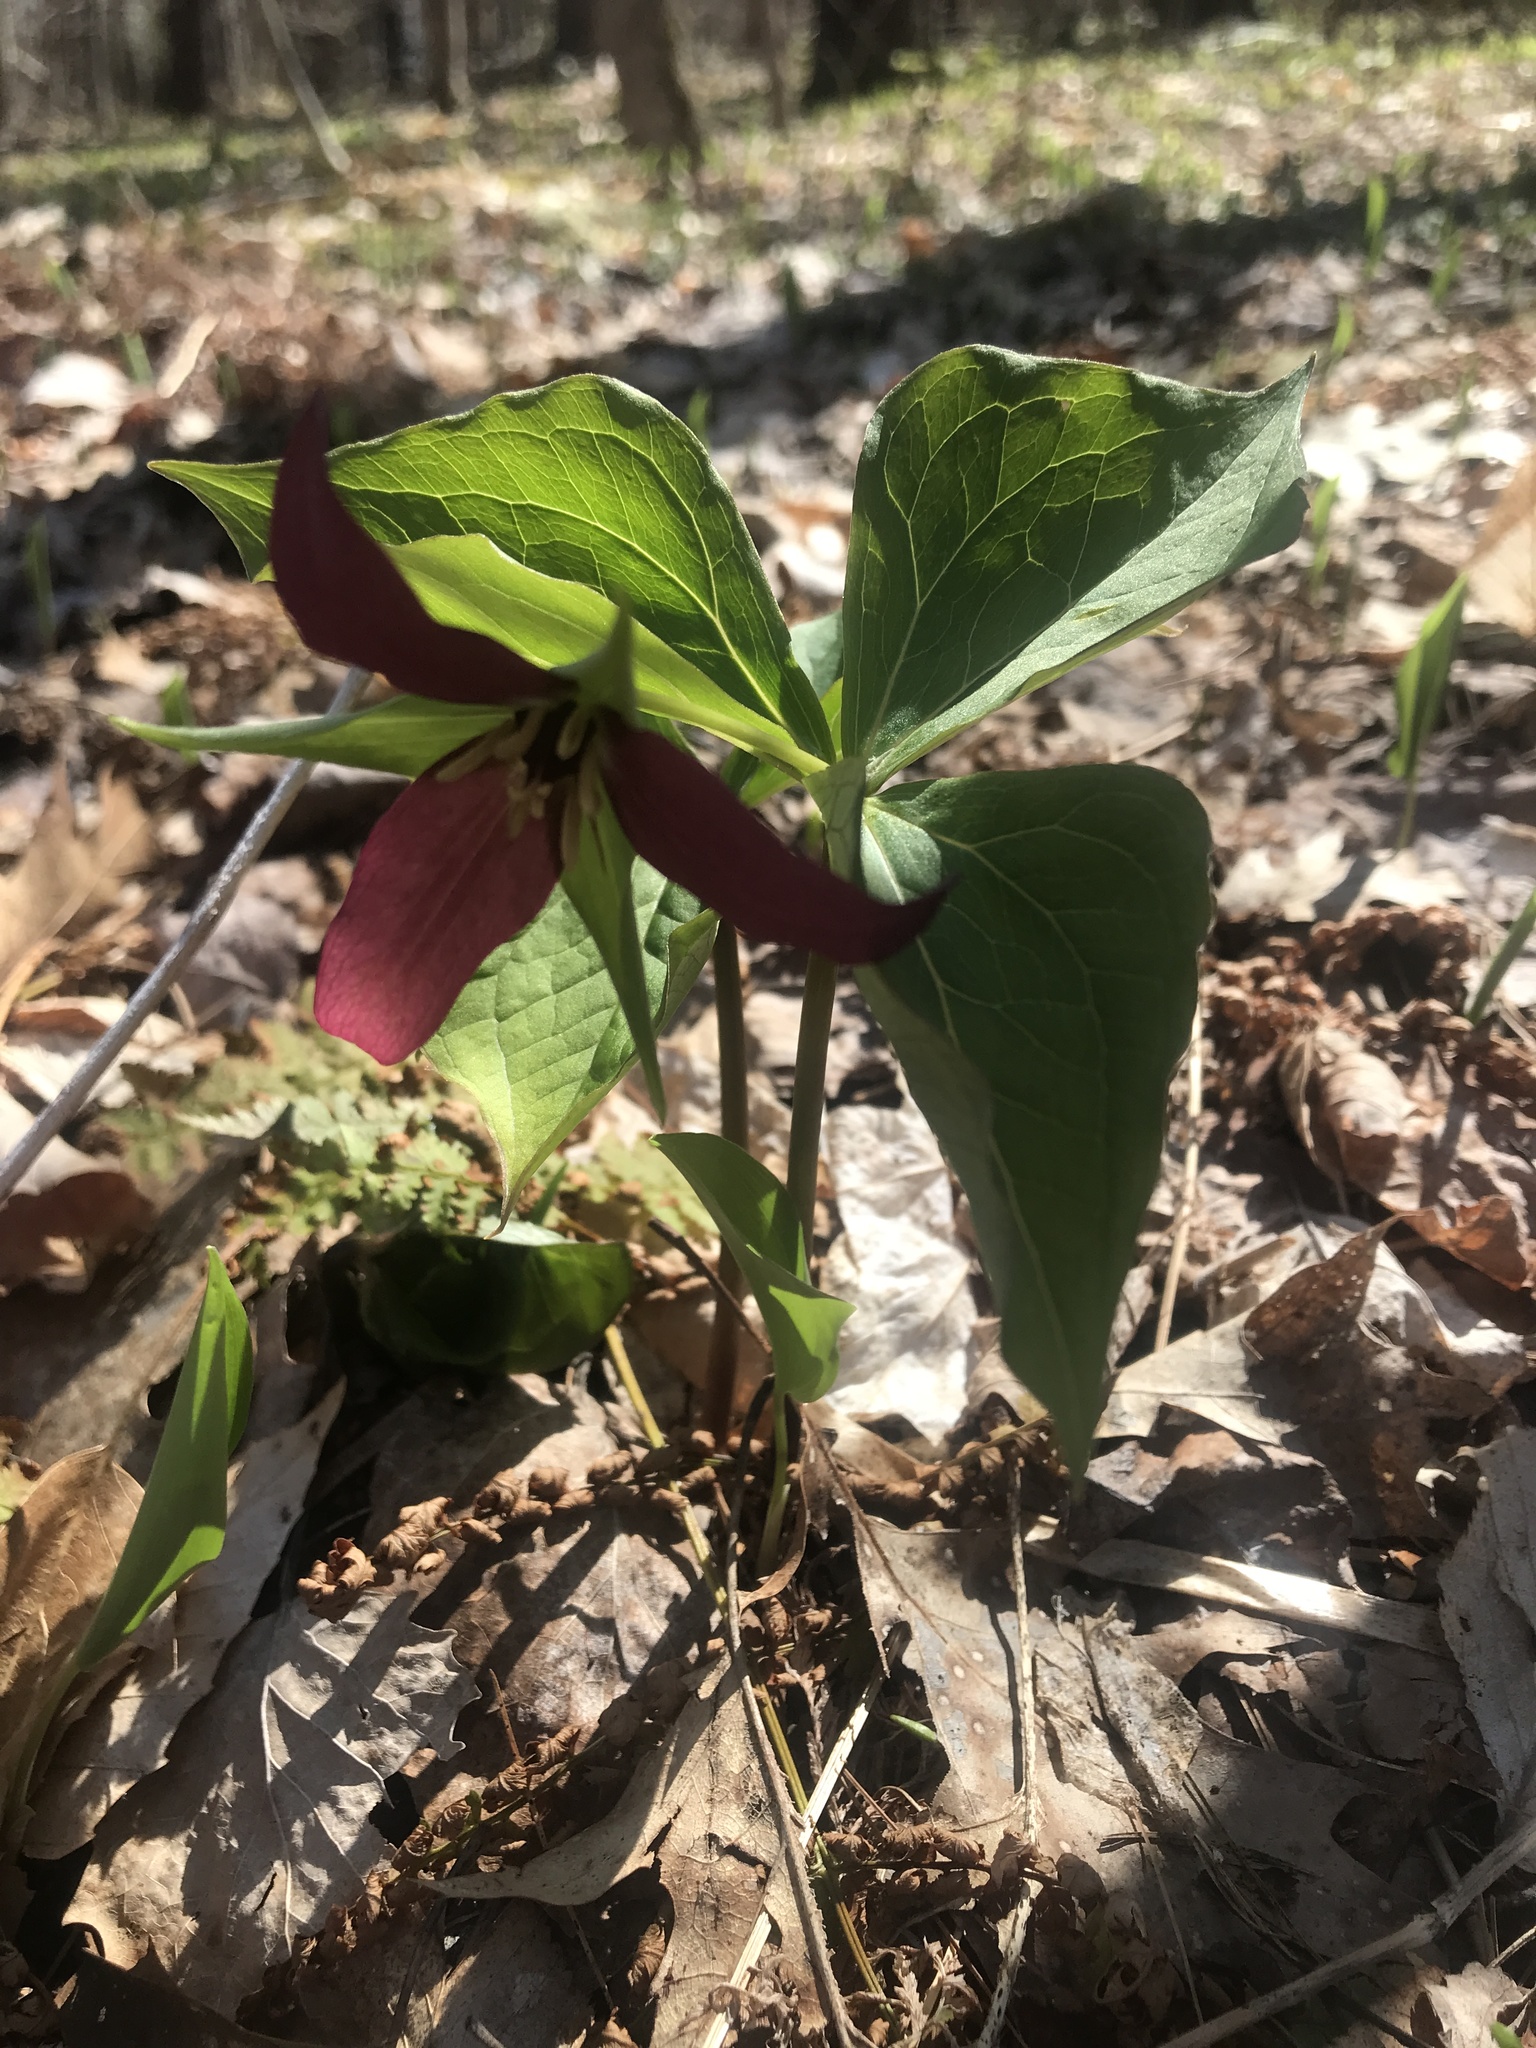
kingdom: Plantae
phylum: Tracheophyta
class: Liliopsida
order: Liliales
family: Melanthiaceae
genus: Trillium
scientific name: Trillium erectum
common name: Purple trillium
